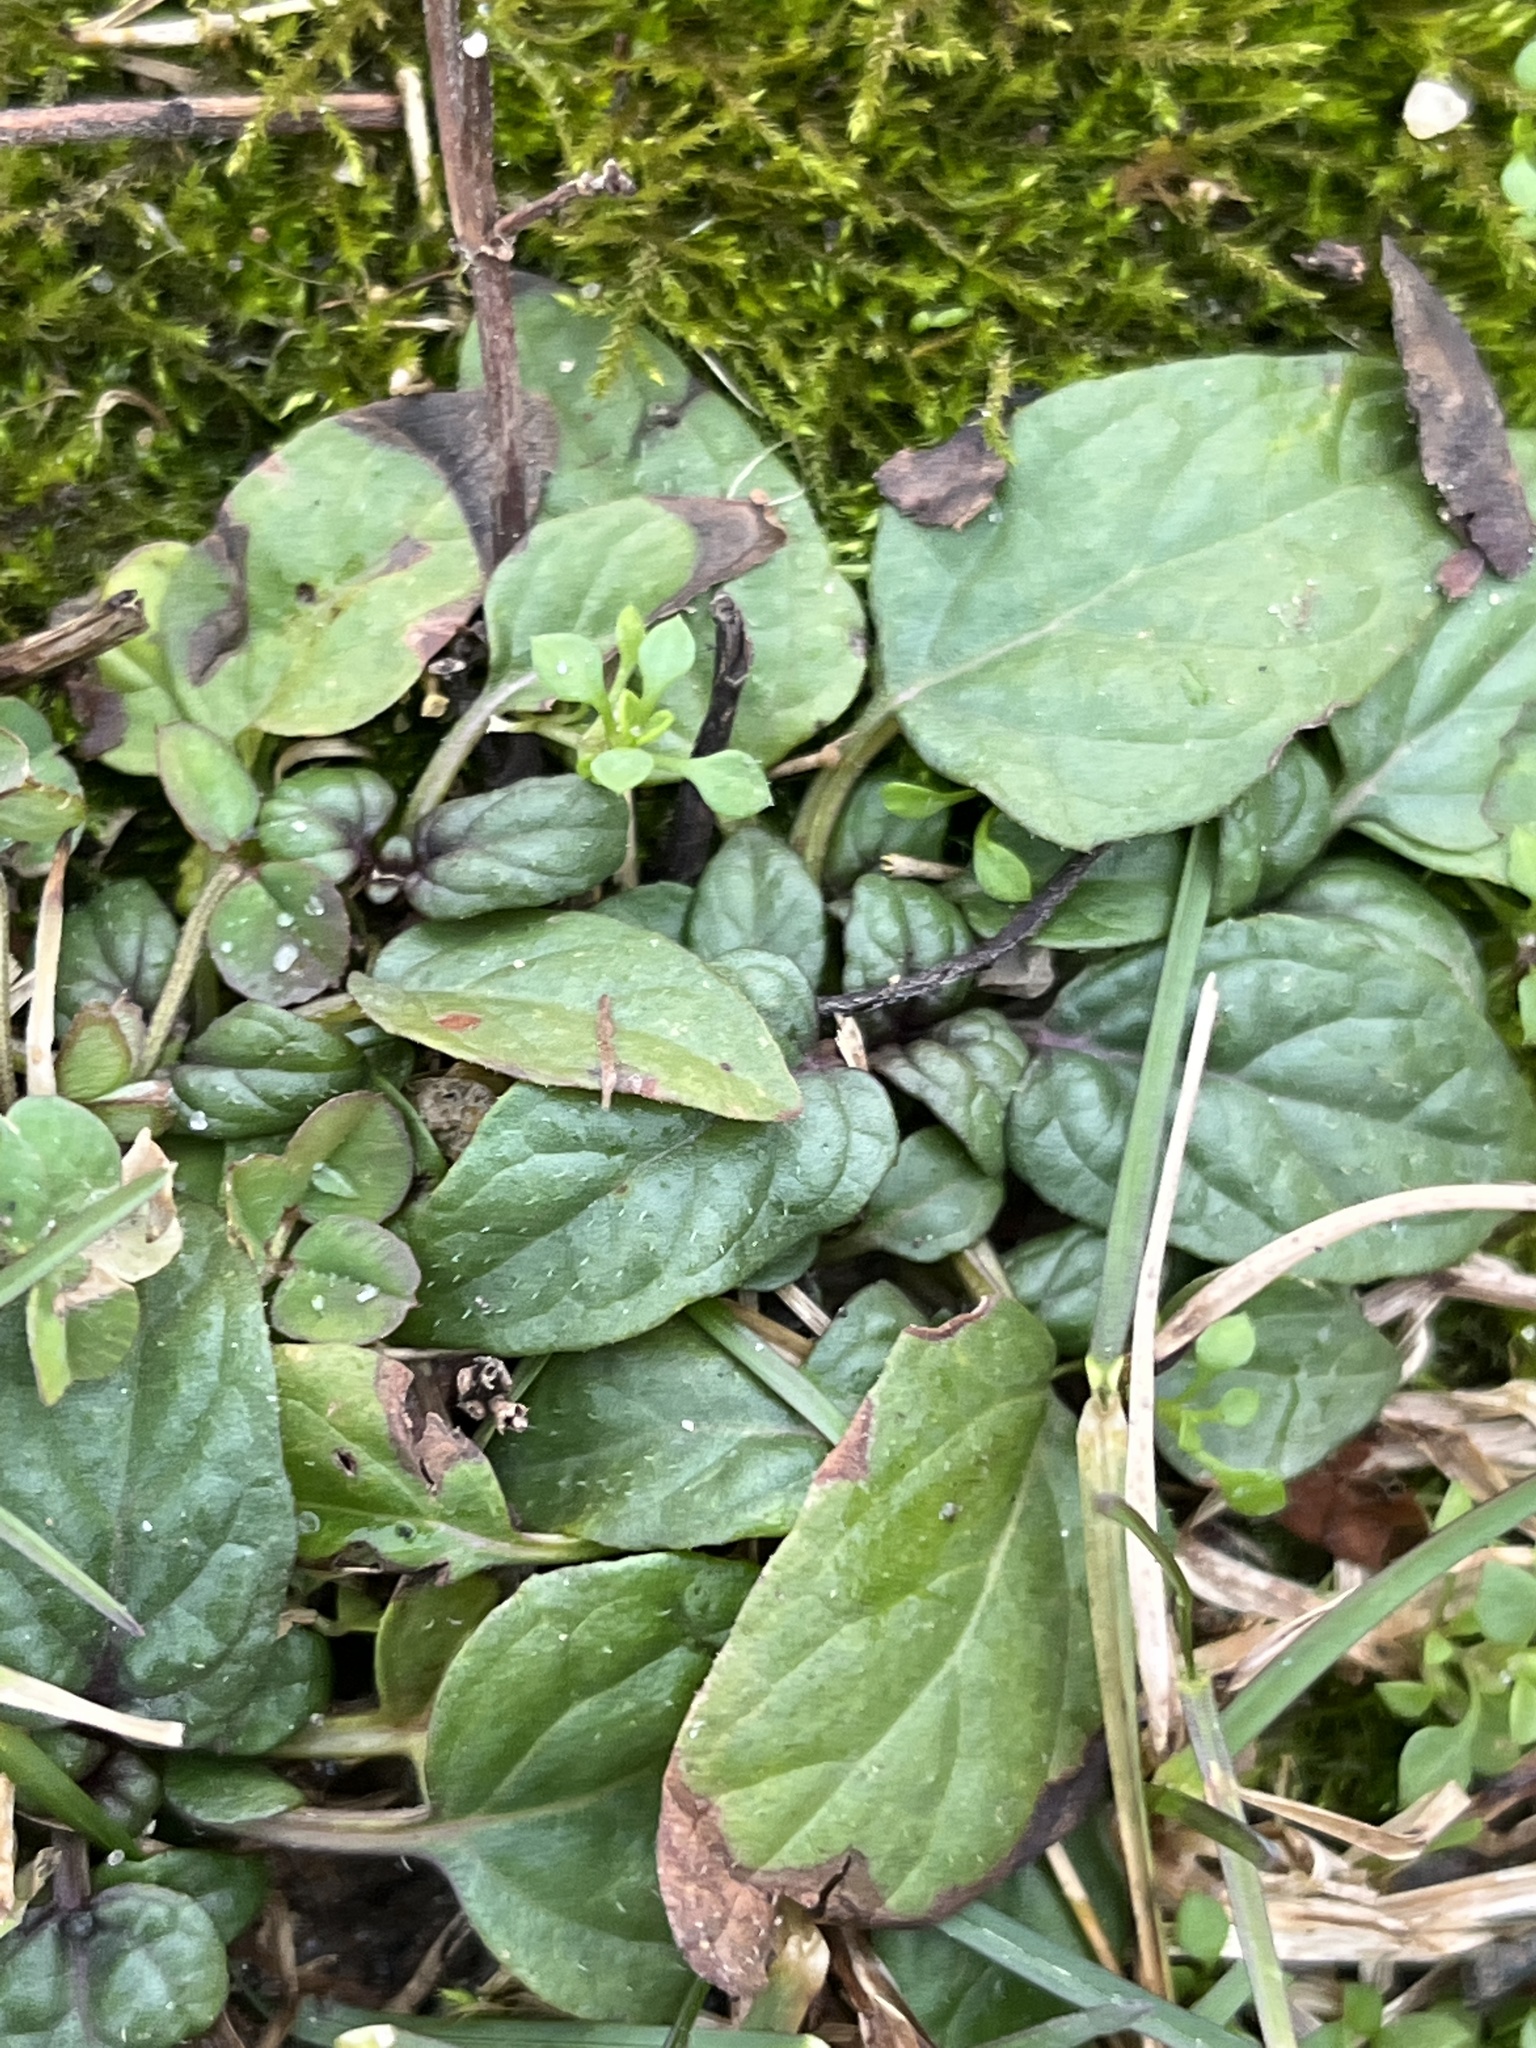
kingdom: Plantae
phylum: Tracheophyta
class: Magnoliopsida
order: Lamiales
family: Lamiaceae
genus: Prunella
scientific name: Prunella vulgaris
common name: Heal-all
